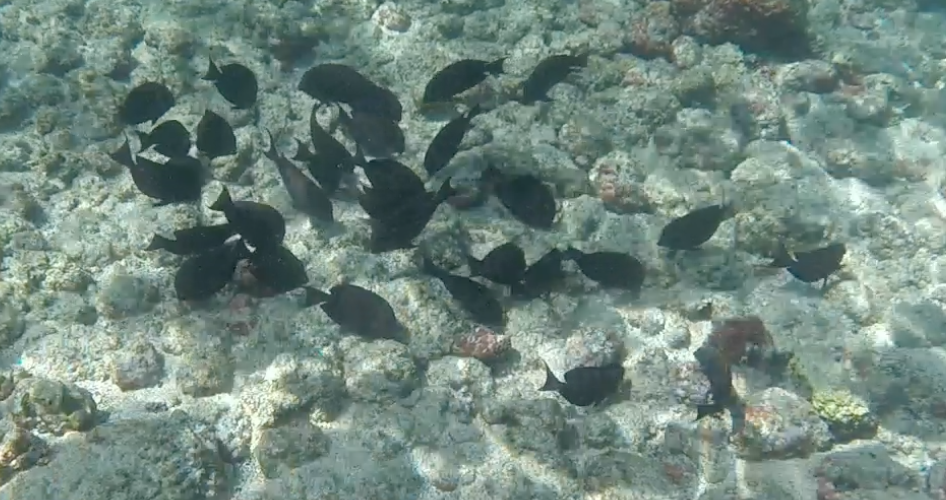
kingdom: Animalia
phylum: Chordata
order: Perciformes
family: Acanthuridae
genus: Ctenochaetus
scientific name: Ctenochaetus strigosus
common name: Bristletoothed surgeonfish
